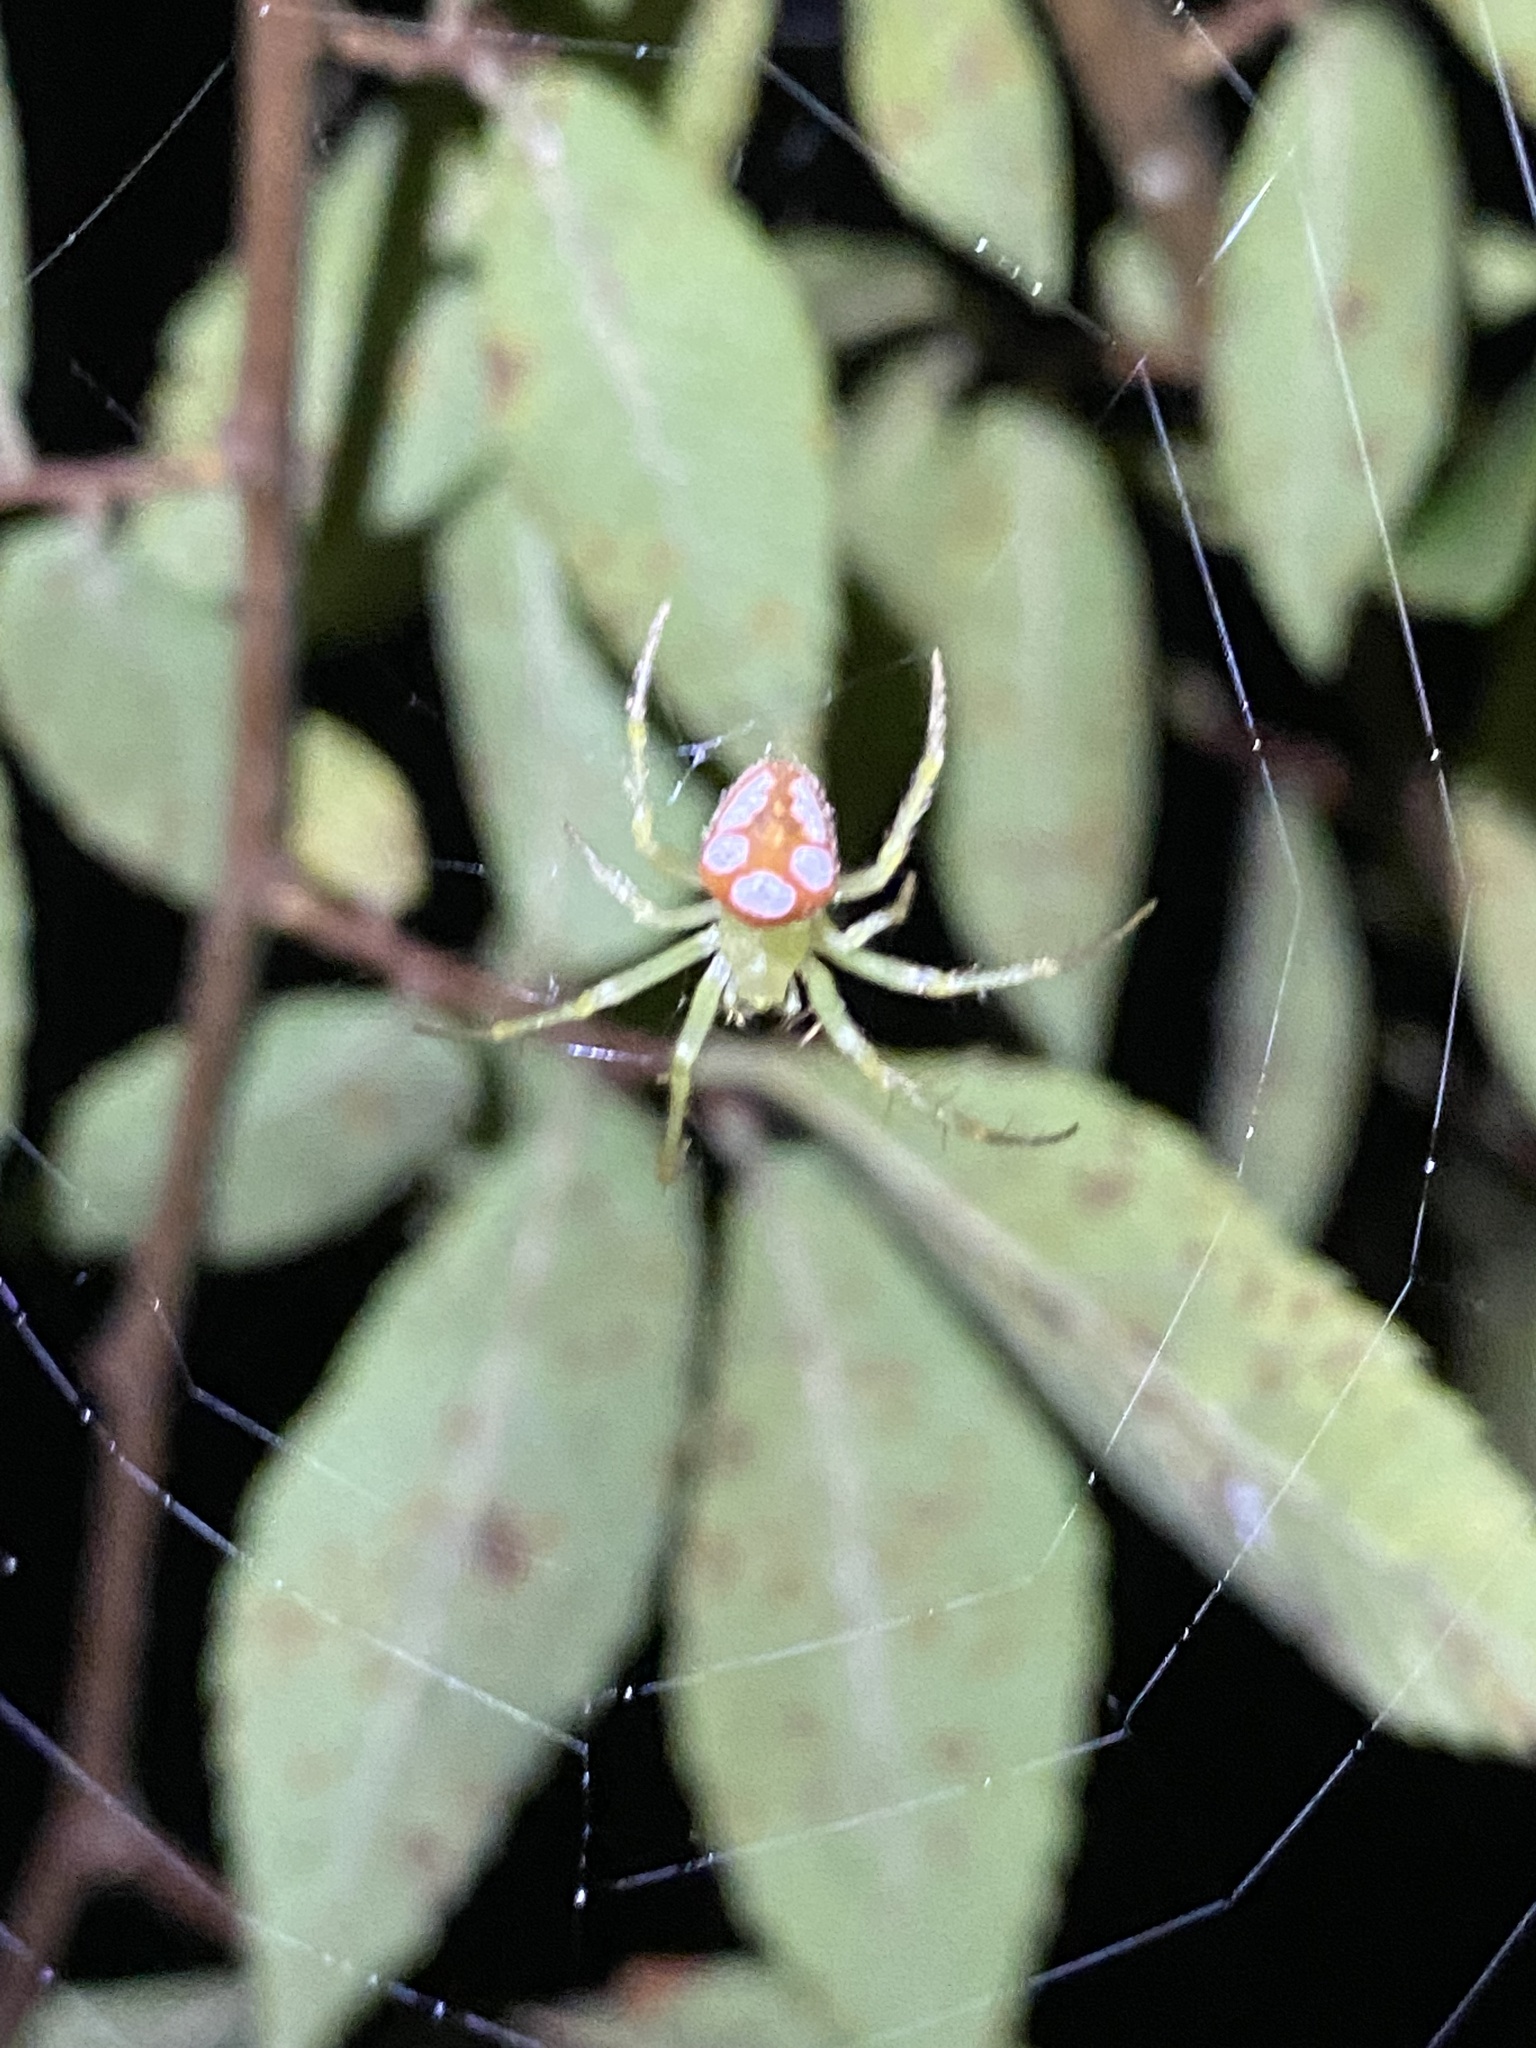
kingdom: Animalia
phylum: Arthropoda
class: Arachnida
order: Araneae
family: Araneidae
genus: Araneus
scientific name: Araneus guttulatus
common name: Red-backed orbweaver
